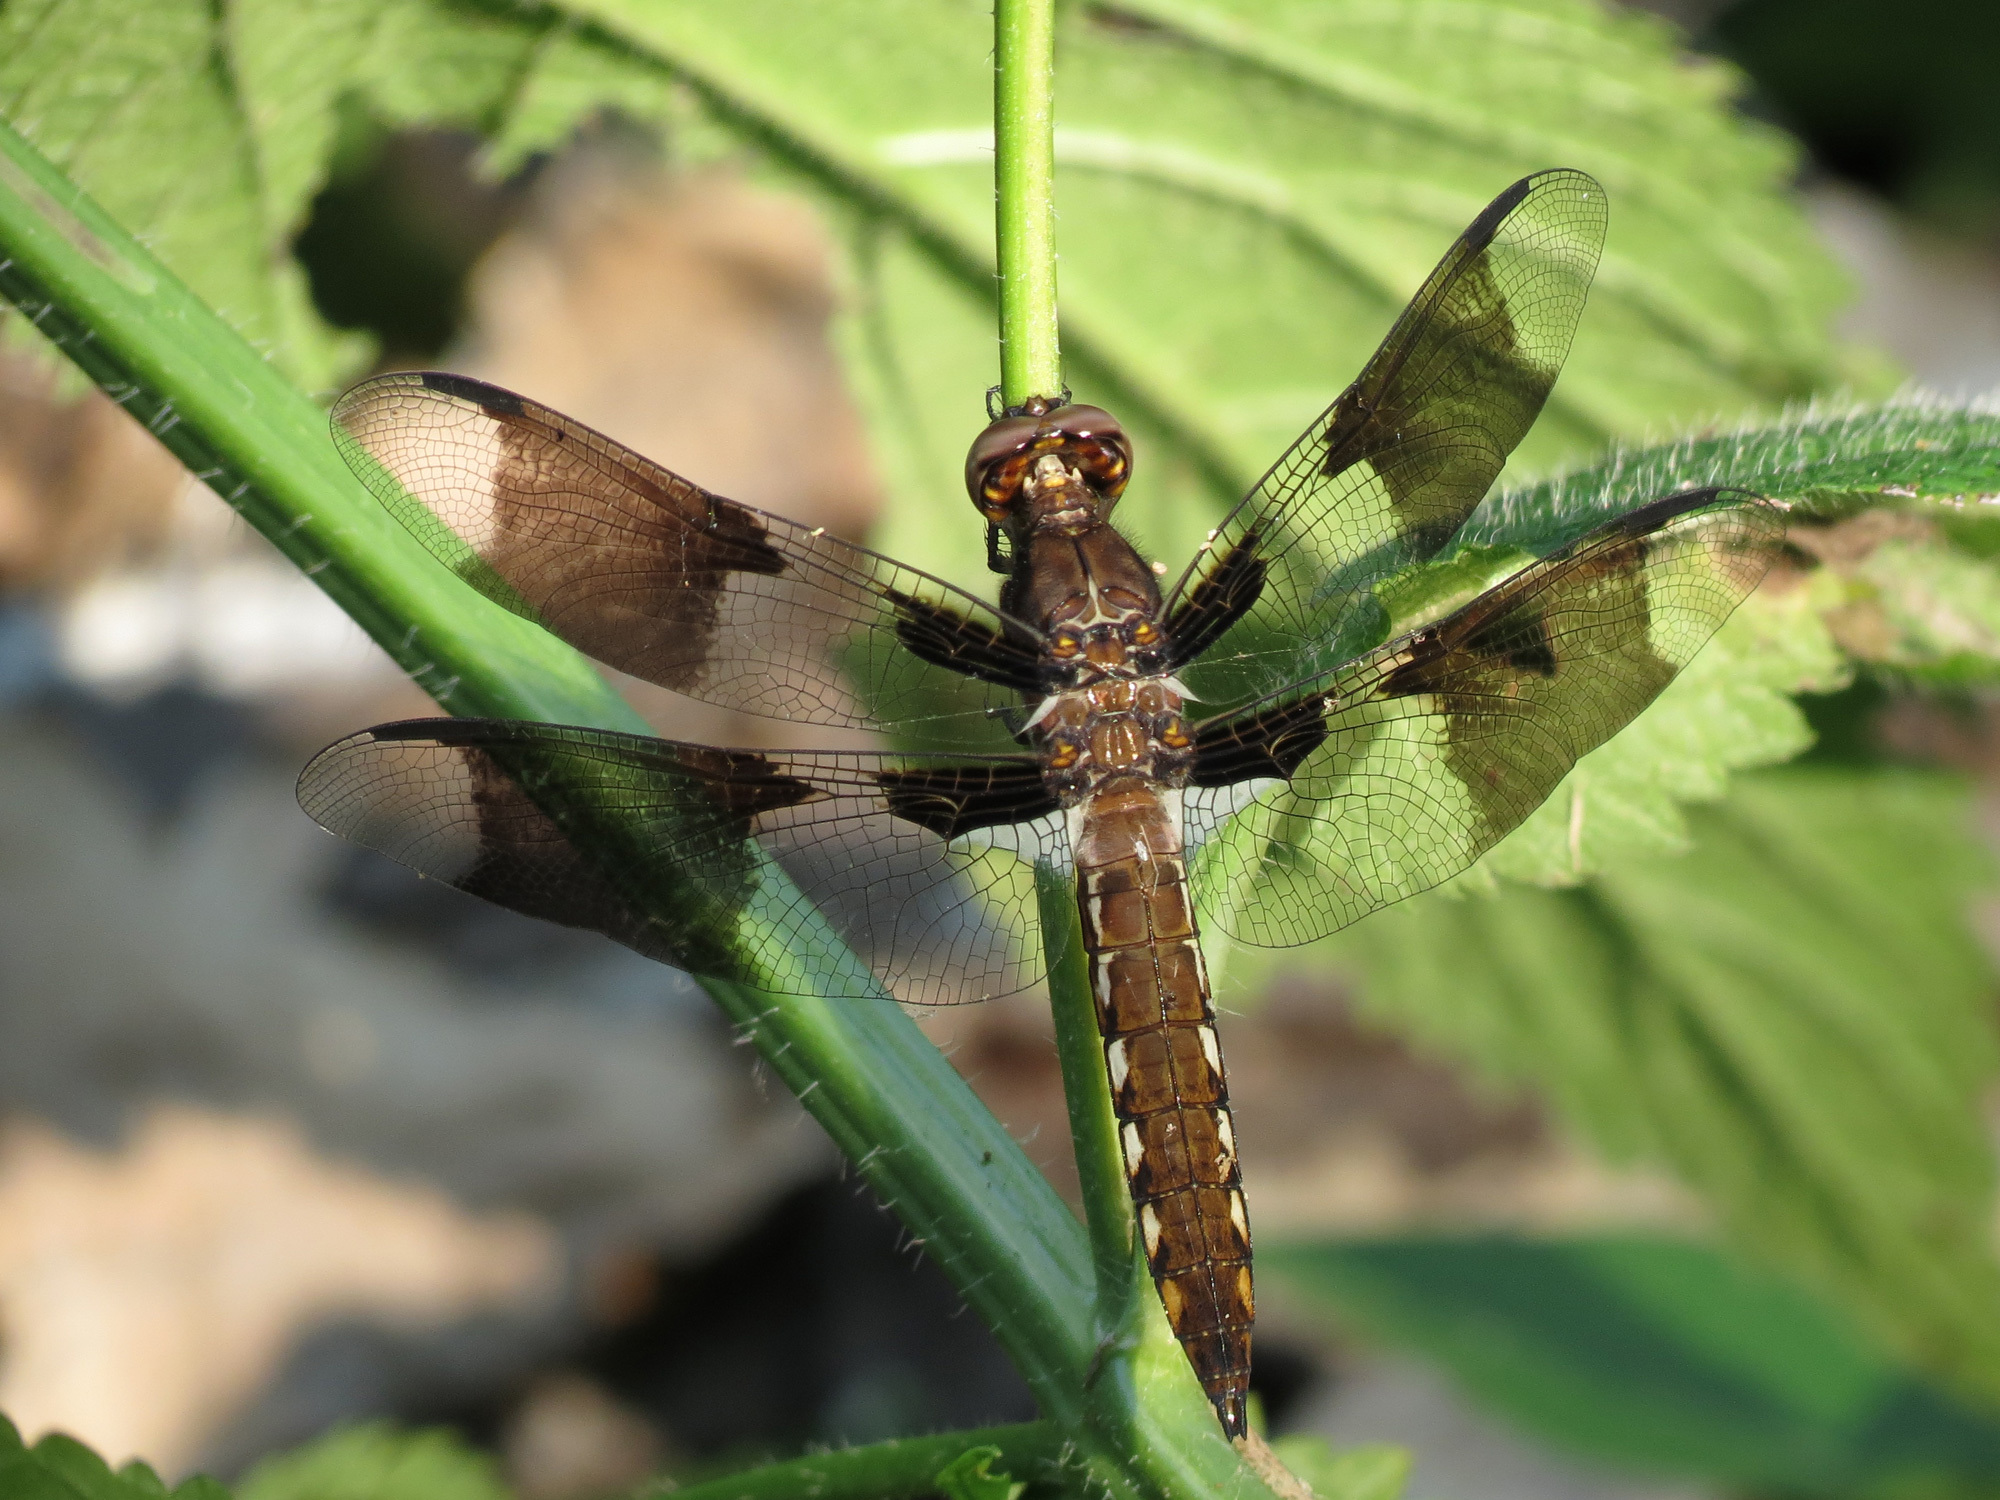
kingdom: Animalia
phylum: Arthropoda
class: Insecta
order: Odonata
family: Libellulidae
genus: Plathemis
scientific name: Plathemis lydia
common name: Common whitetail
